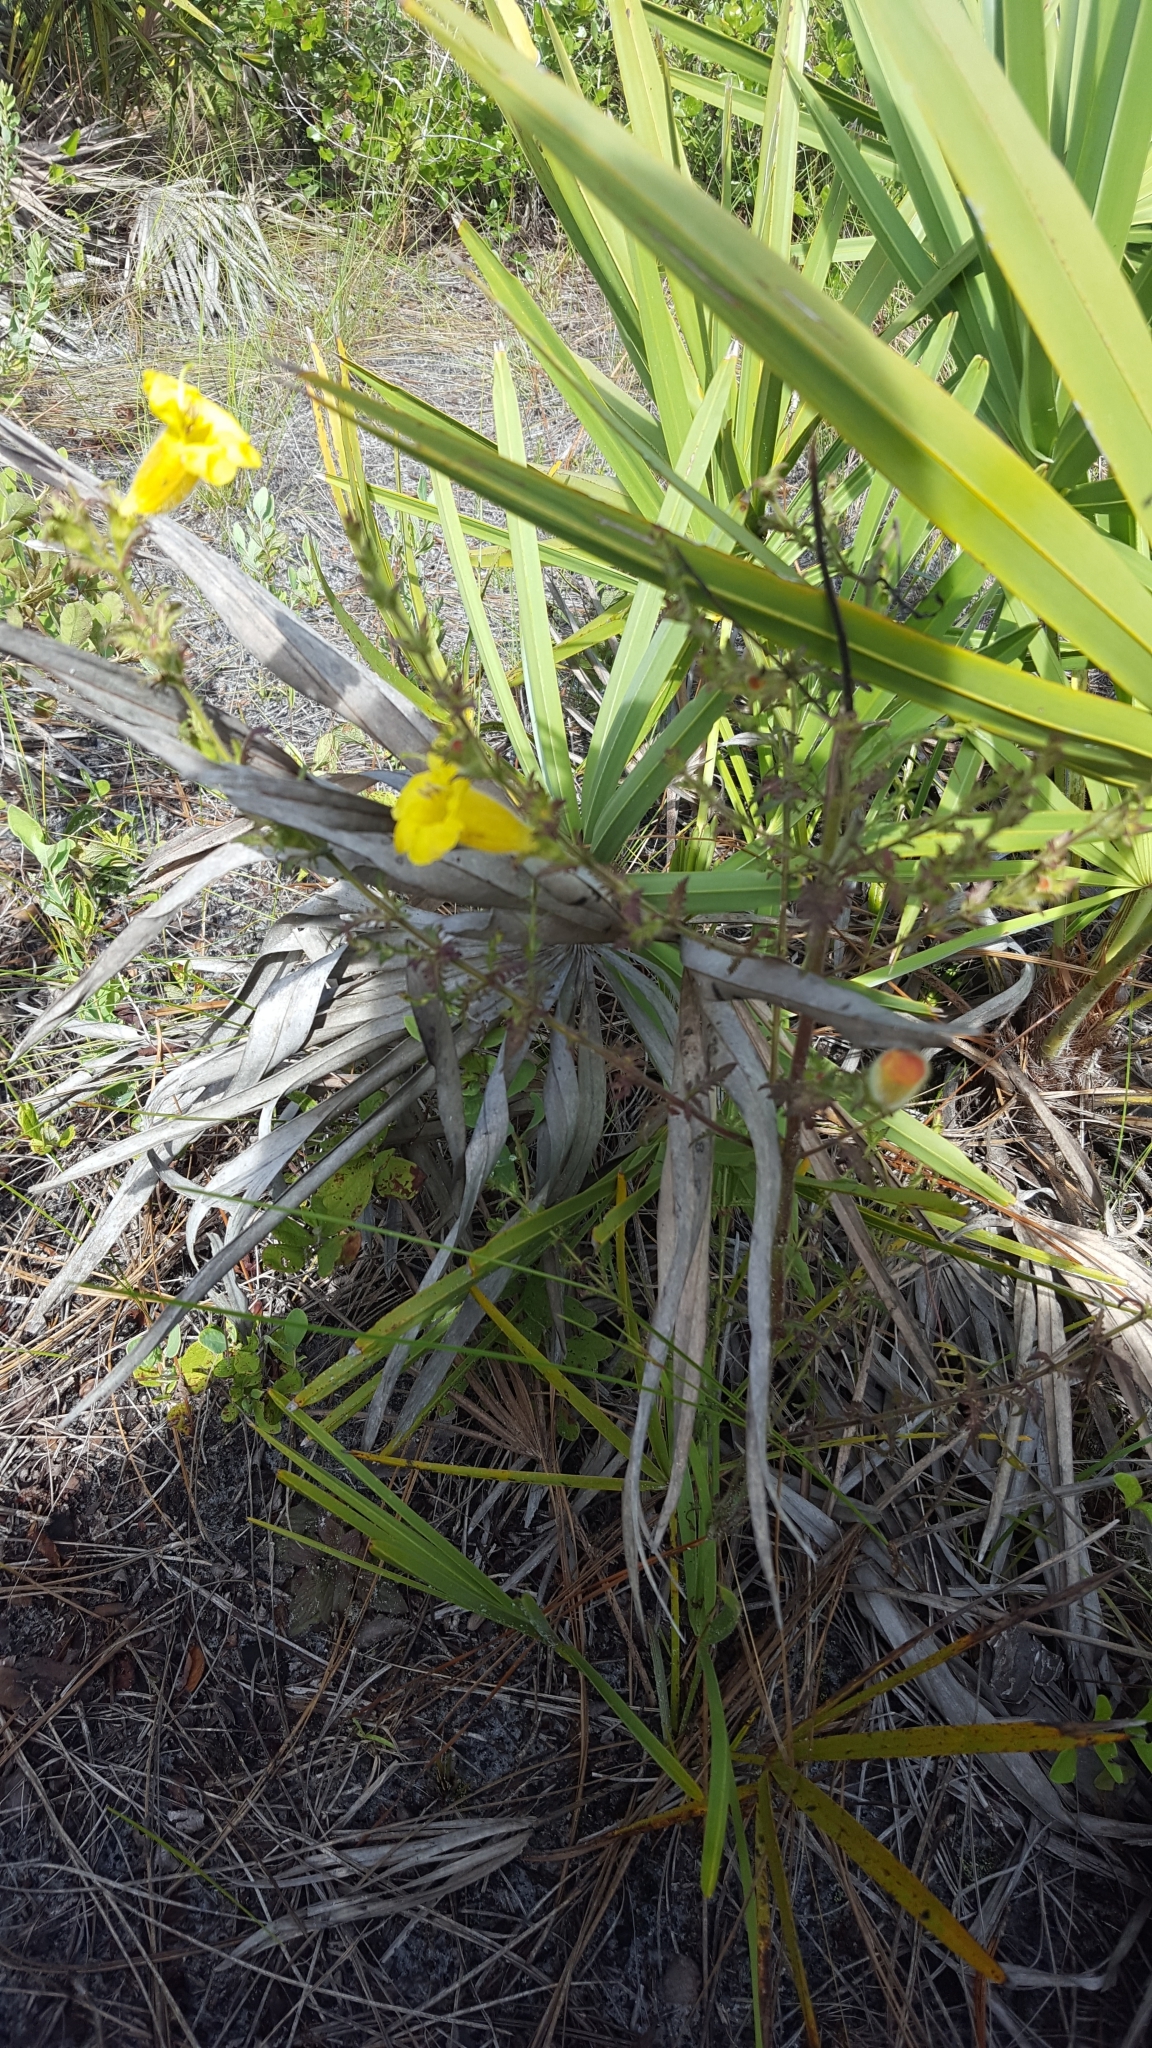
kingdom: Plantae
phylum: Tracheophyta
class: Magnoliopsida
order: Lamiales
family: Orobanchaceae
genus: Aureolaria
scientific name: Aureolaria pectinata
